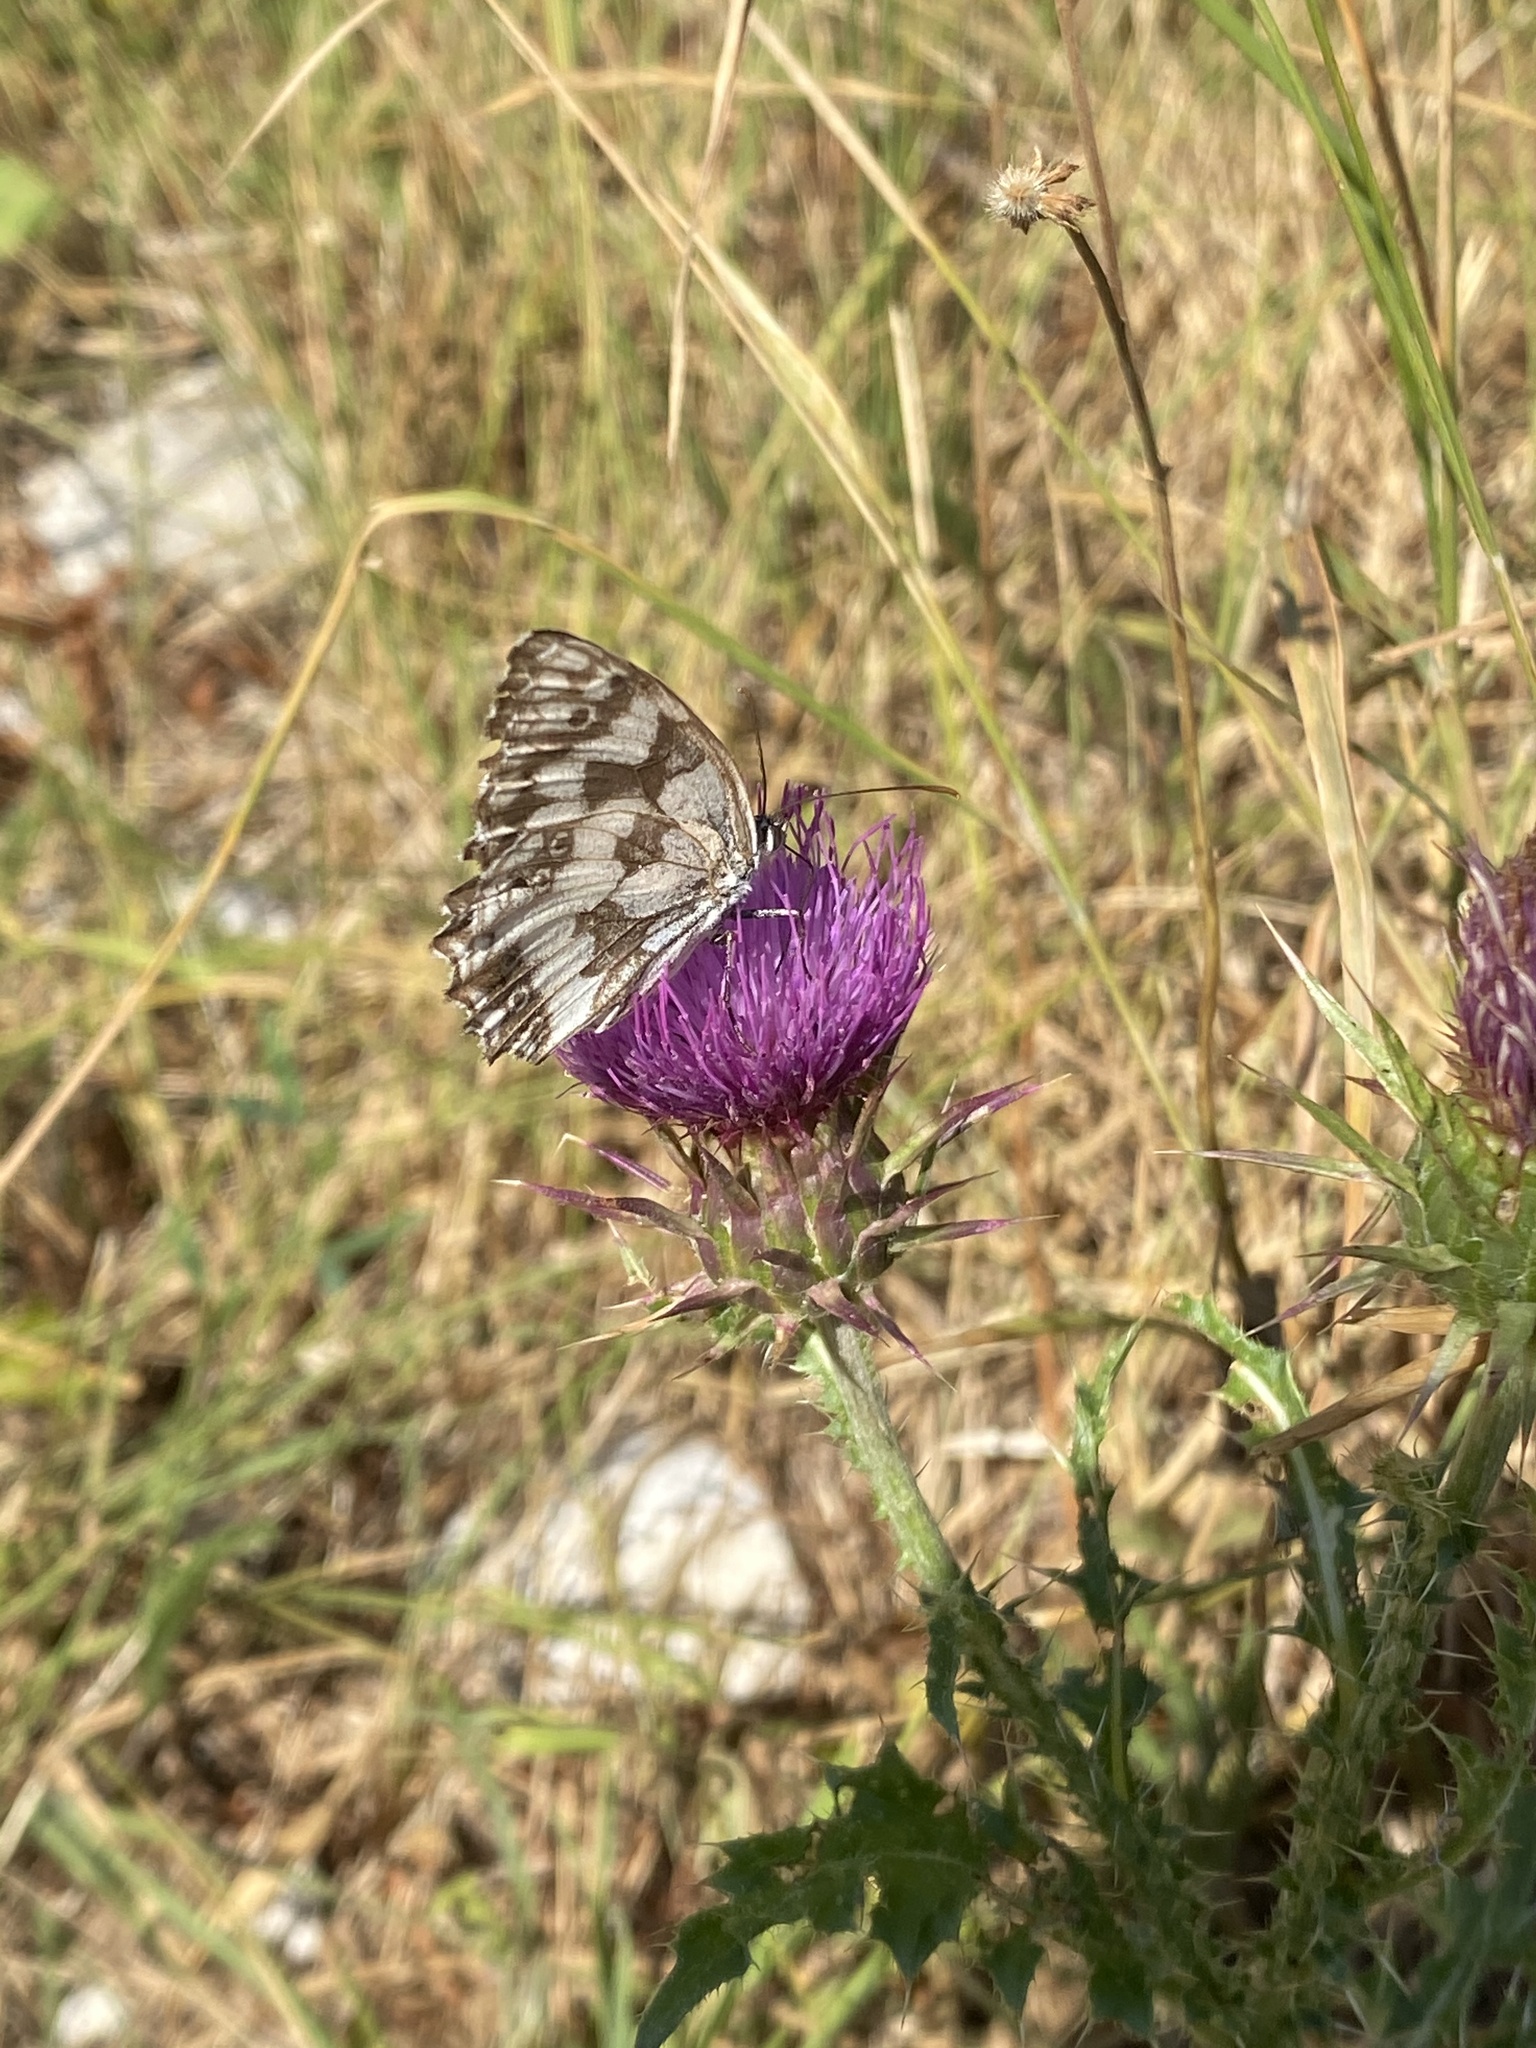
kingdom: Animalia
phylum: Arthropoda
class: Insecta
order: Lepidoptera
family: Nymphalidae
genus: Melanargia
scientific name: Melanargia galathea
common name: Marbled white
